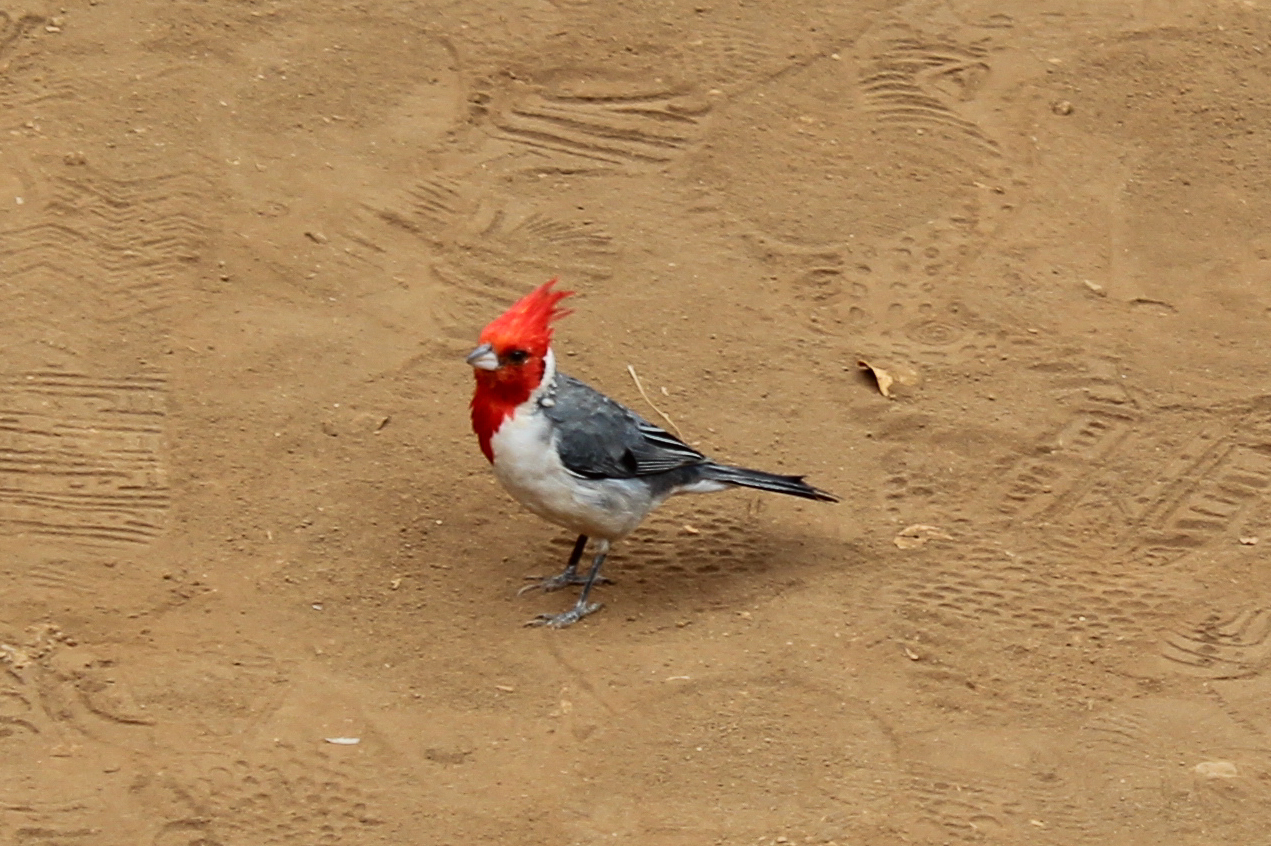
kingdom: Animalia
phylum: Chordata
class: Aves
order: Passeriformes
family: Thraupidae
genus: Paroaria
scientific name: Paroaria coronata
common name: Red-crested cardinal
